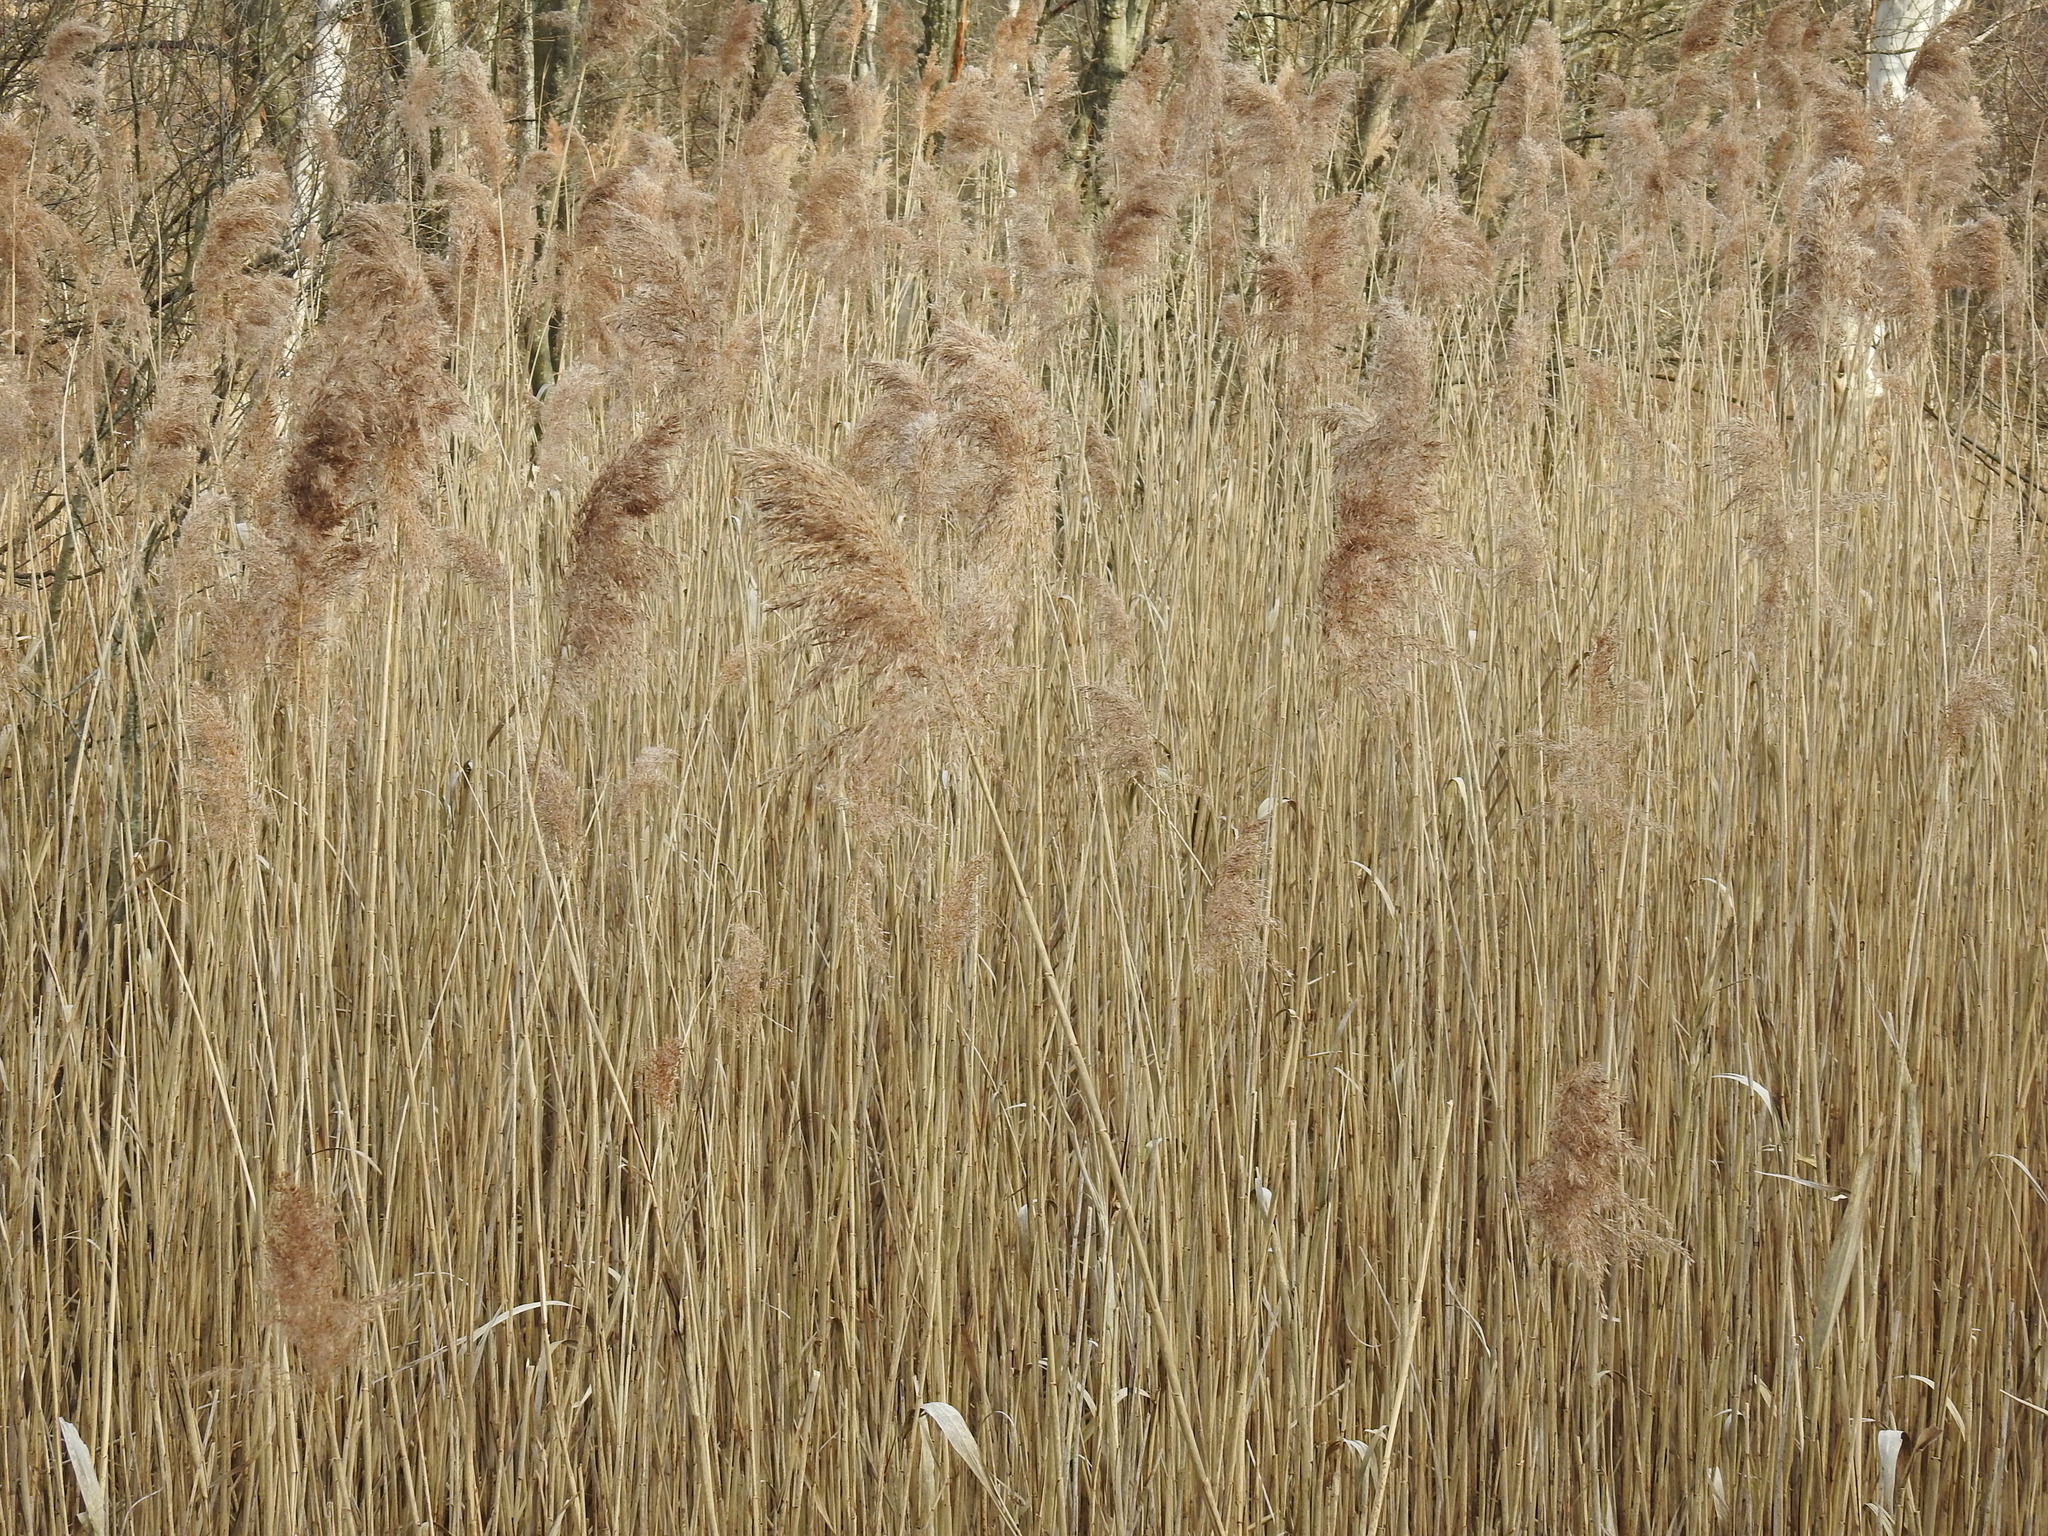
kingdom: Plantae
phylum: Tracheophyta
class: Liliopsida
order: Poales
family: Poaceae
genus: Phragmites
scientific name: Phragmites australis
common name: Common reed
